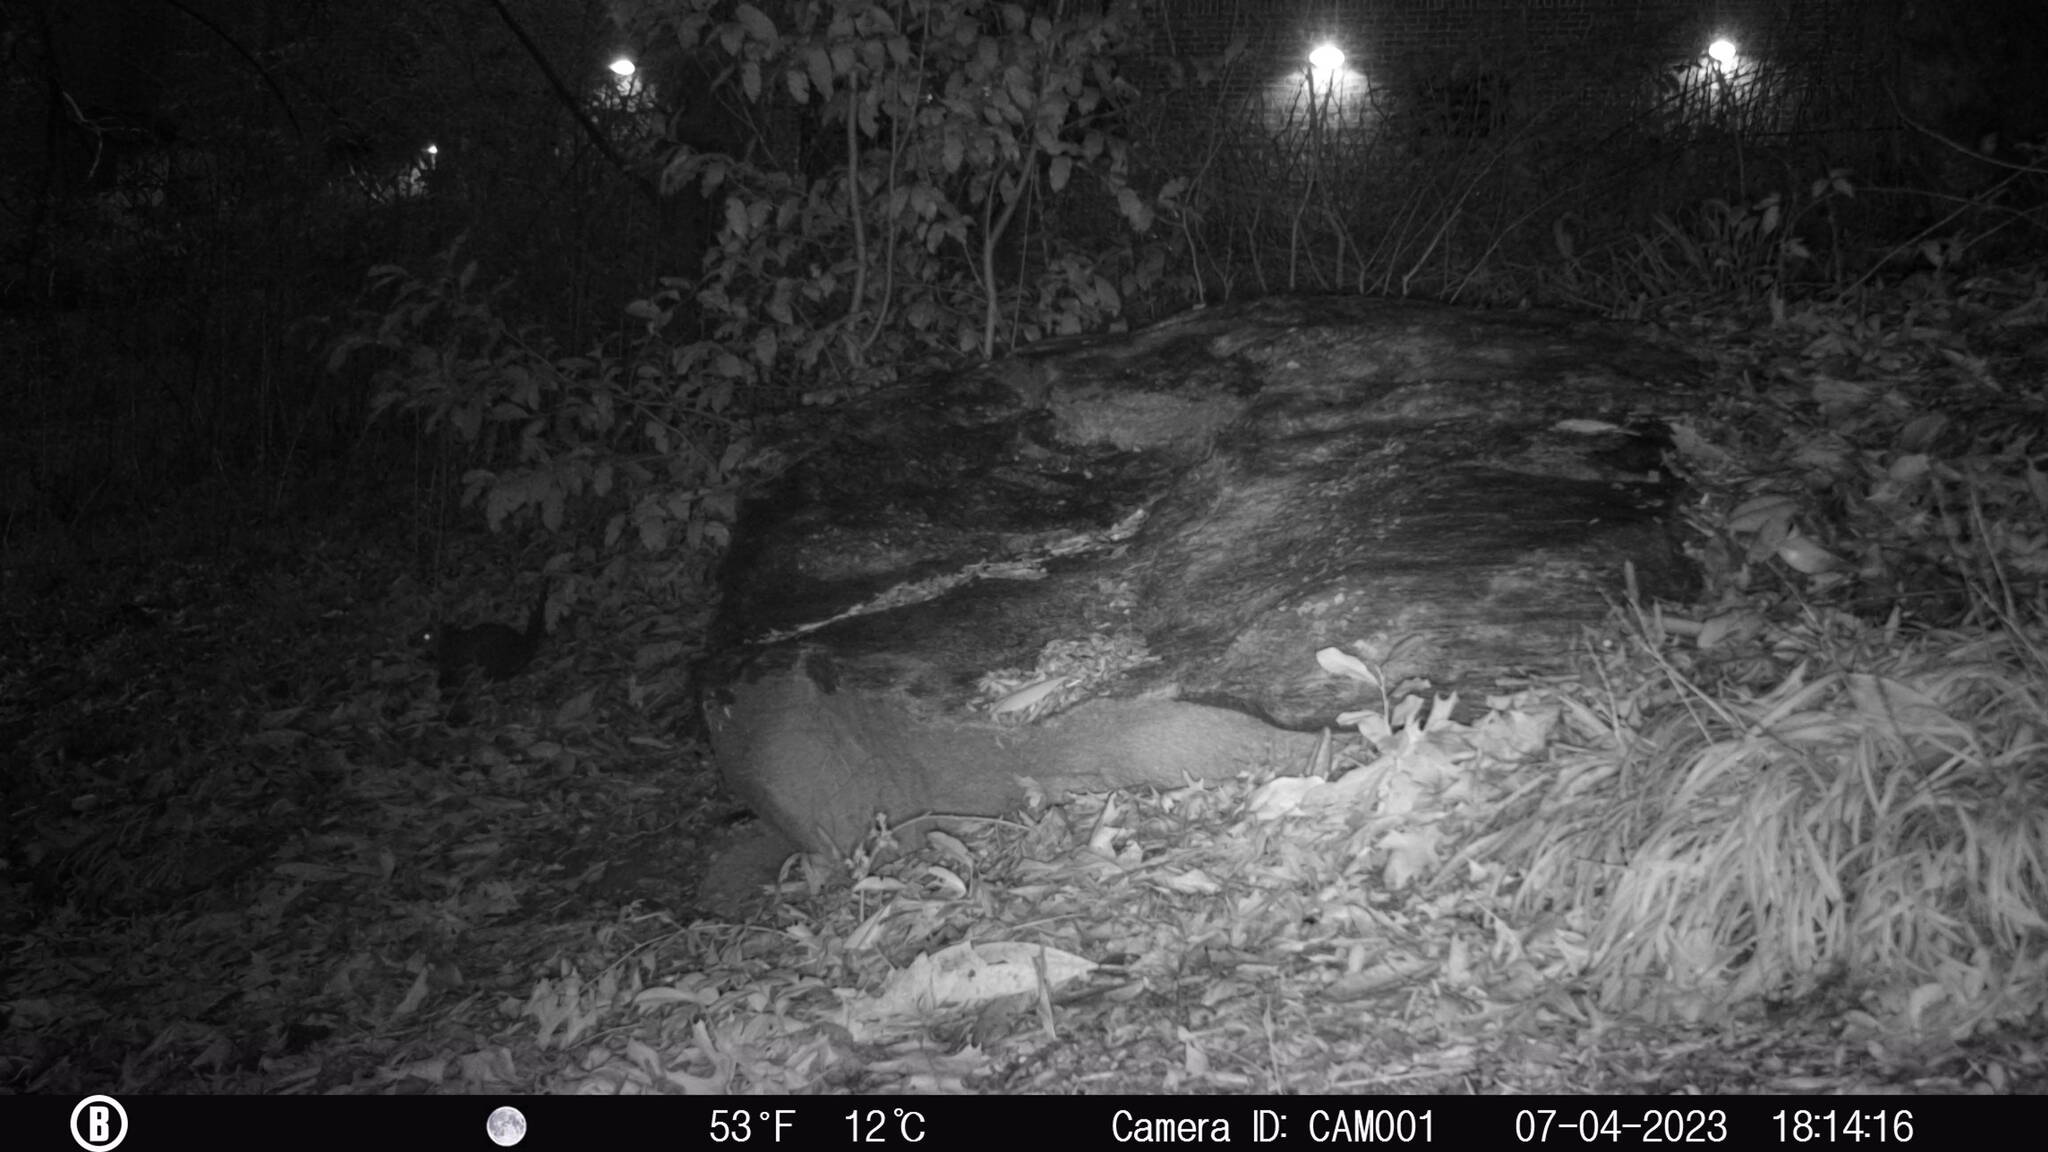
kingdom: Animalia
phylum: Chordata
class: Mammalia
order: Rodentia
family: Sciuridae
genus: Sciurus
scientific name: Sciurus carolinensis
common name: Eastern gray squirrel
